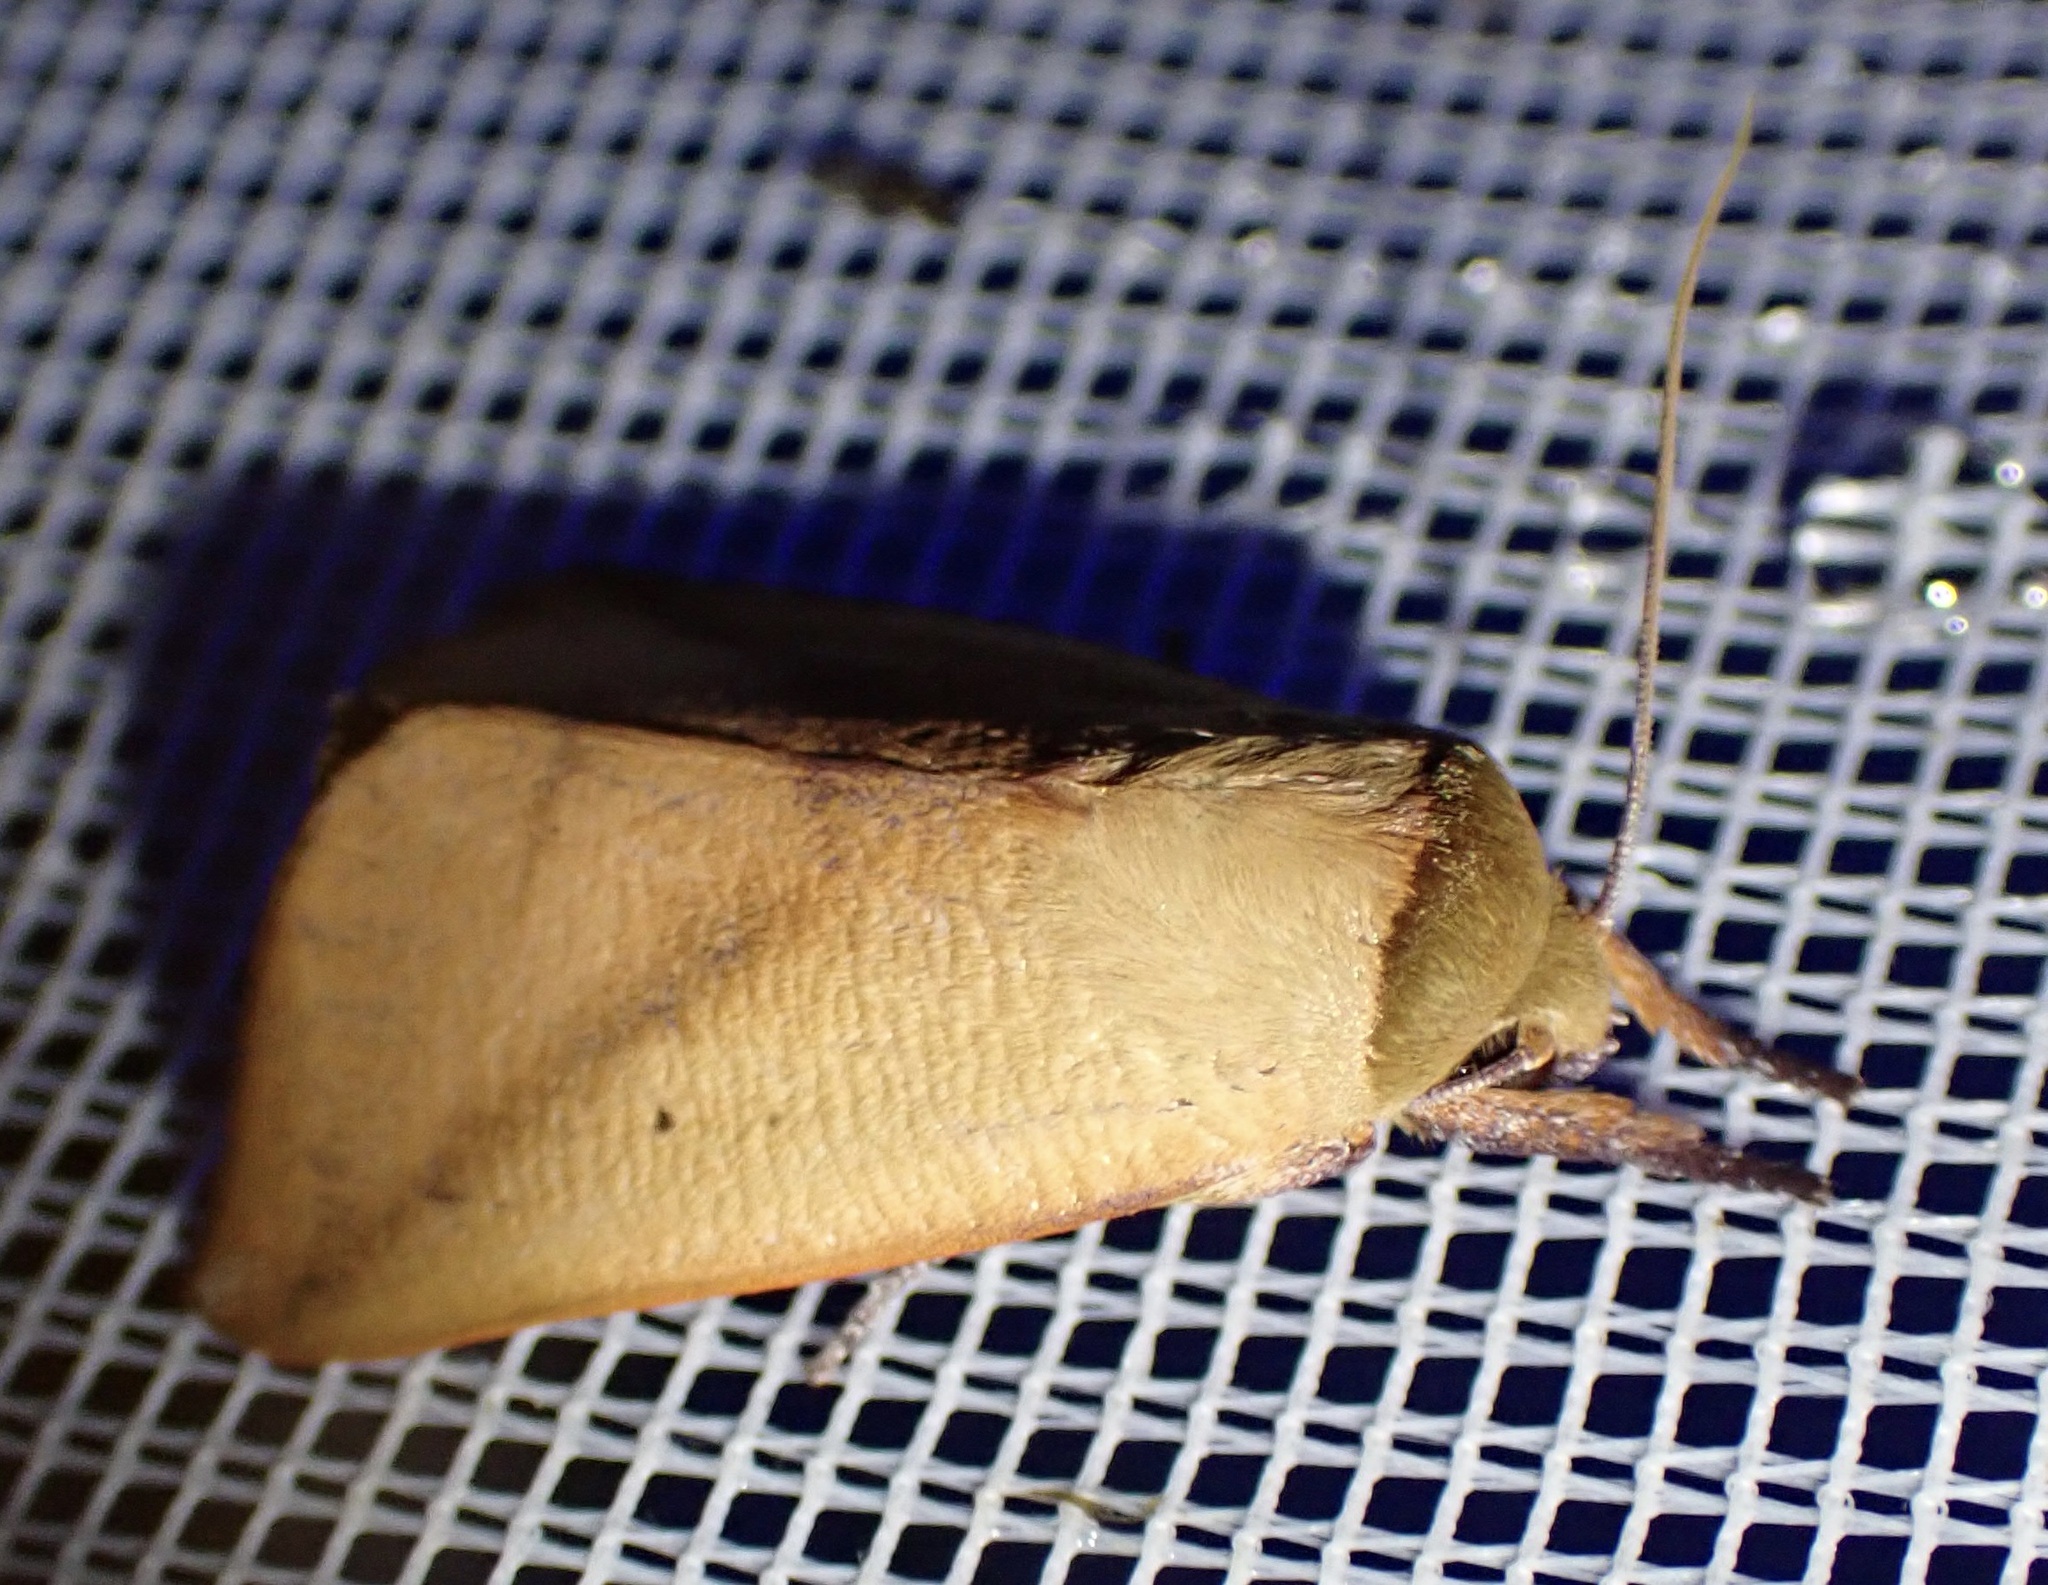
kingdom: Animalia
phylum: Arthropoda
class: Insecta
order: Lepidoptera
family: Nolidae
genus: Carea
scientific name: Carea pratti
